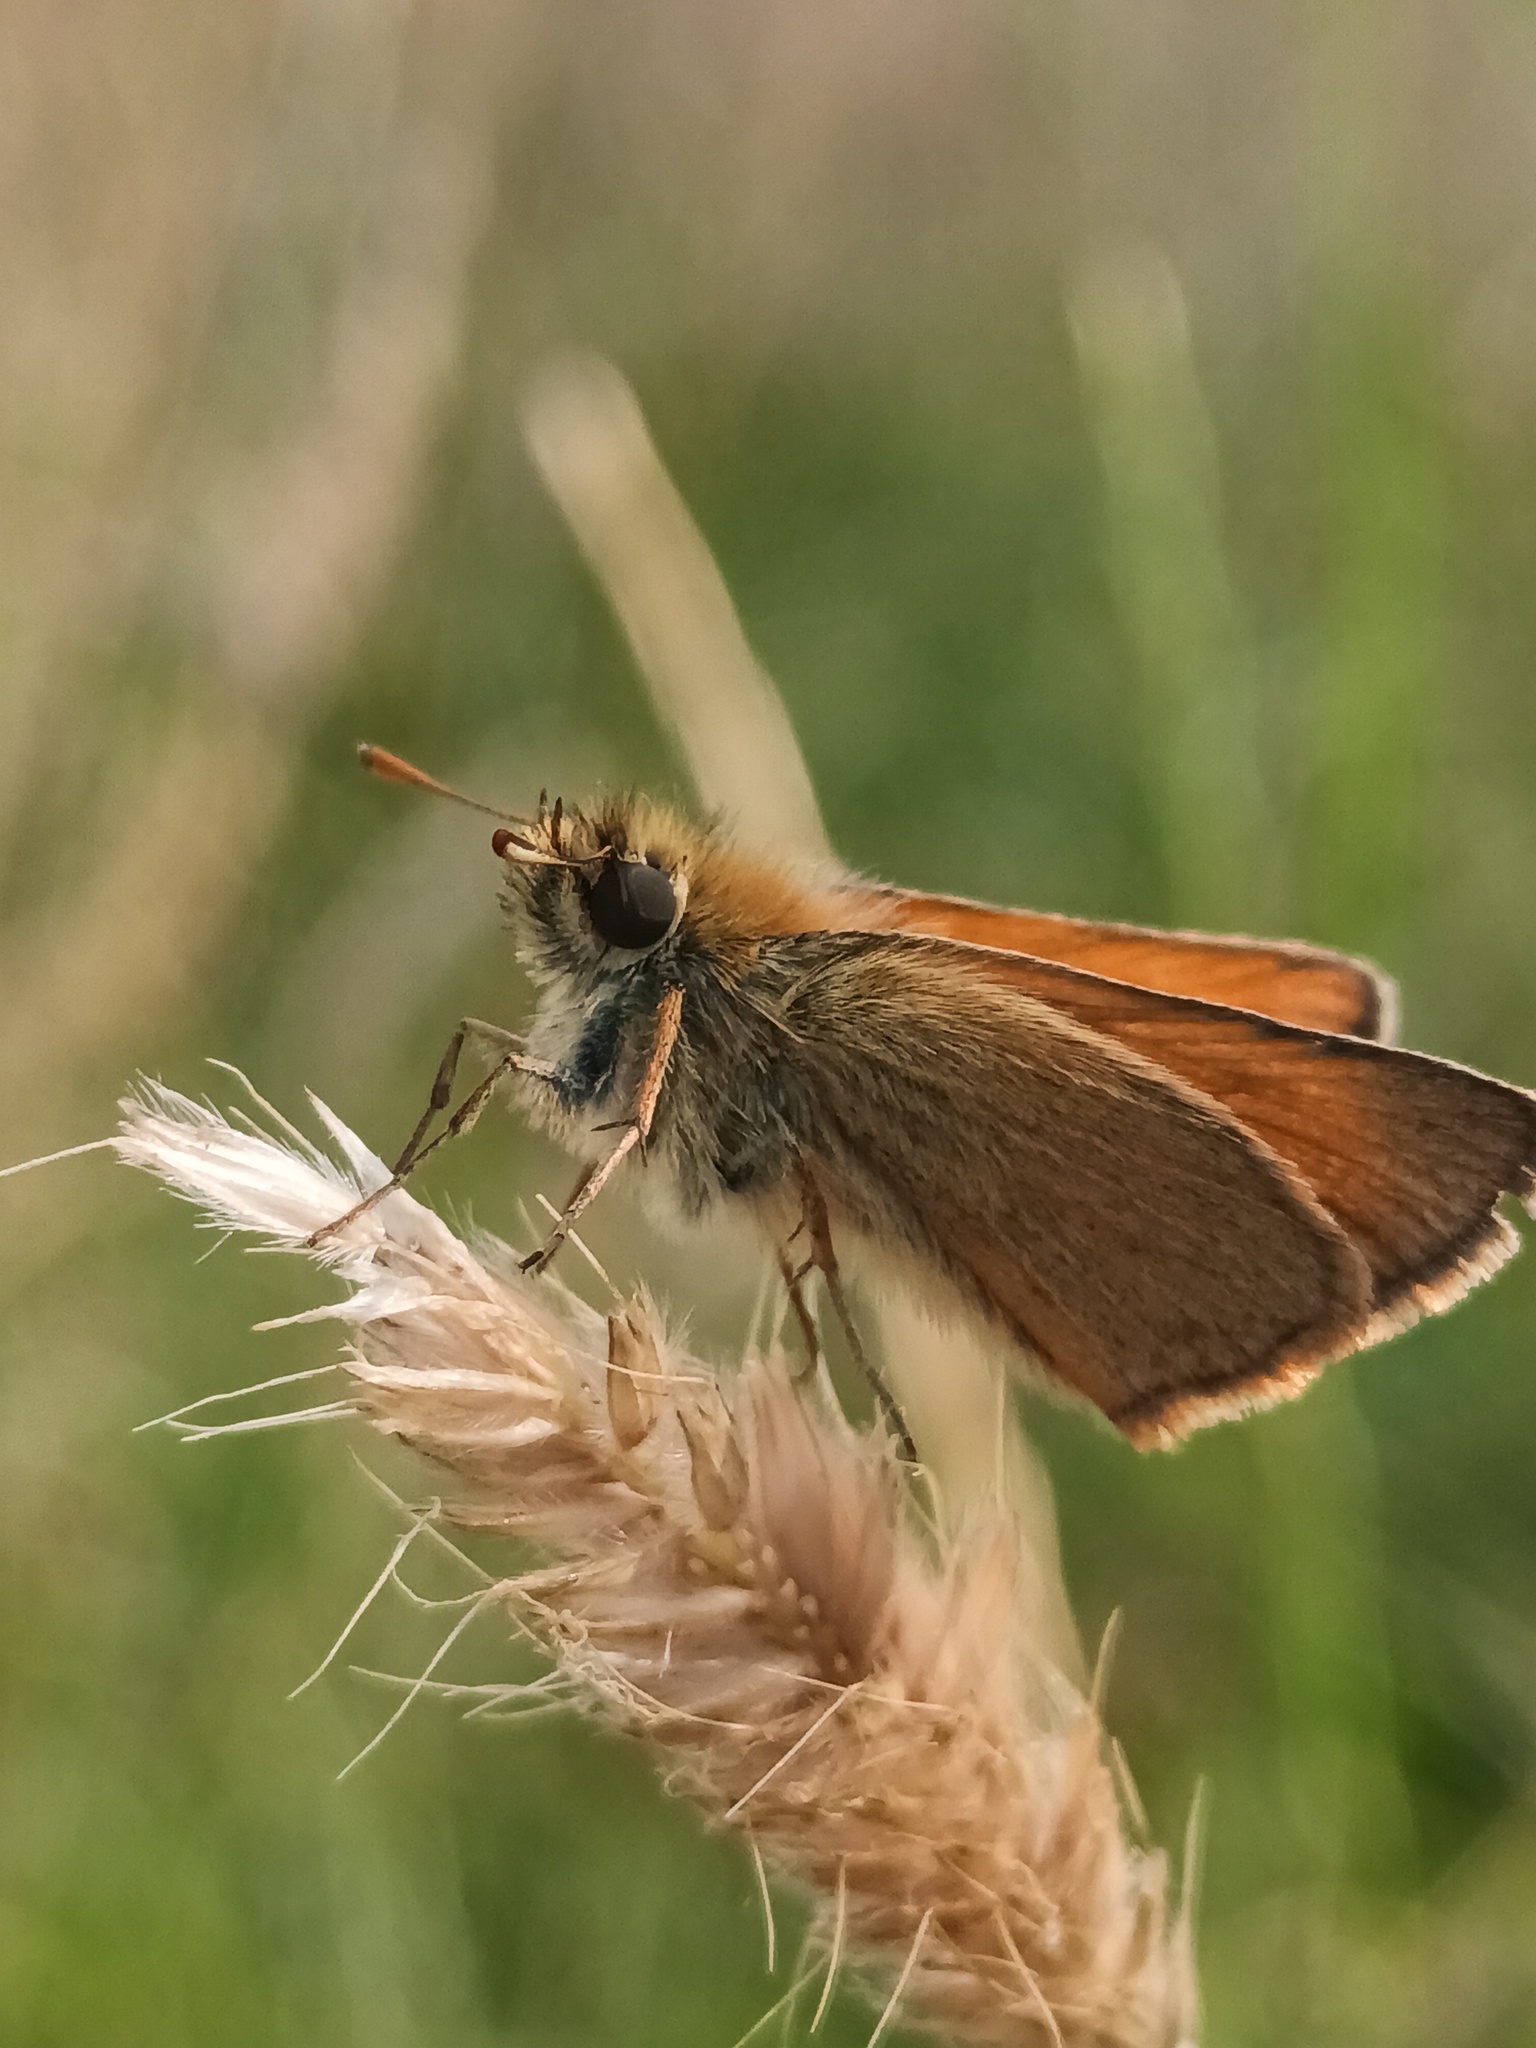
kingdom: Animalia
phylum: Arthropoda
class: Insecta
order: Lepidoptera
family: Hesperiidae
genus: Thymelicus
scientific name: Thymelicus sylvestris
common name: Small skipper
